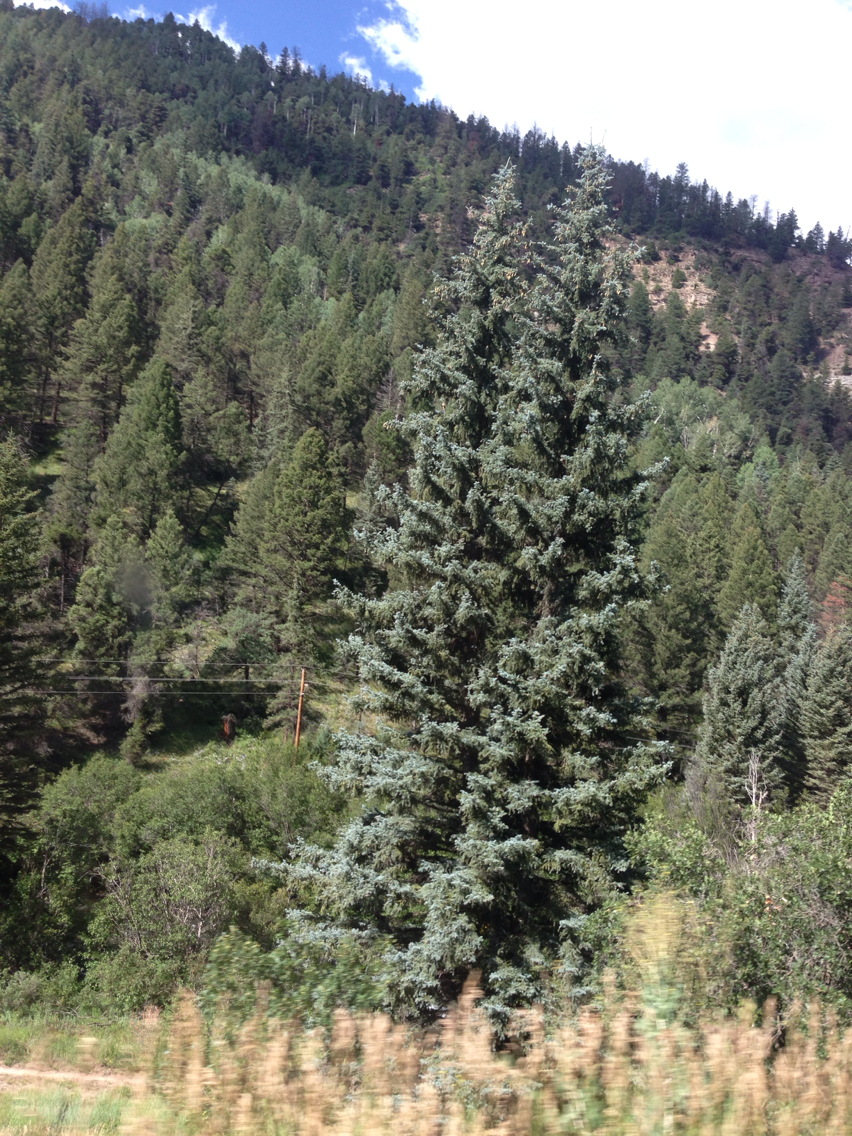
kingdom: Plantae
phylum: Tracheophyta
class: Pinopsida
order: Pinales
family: Pinaceae
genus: Picea
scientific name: Picea pungens
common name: Colorado spruce
